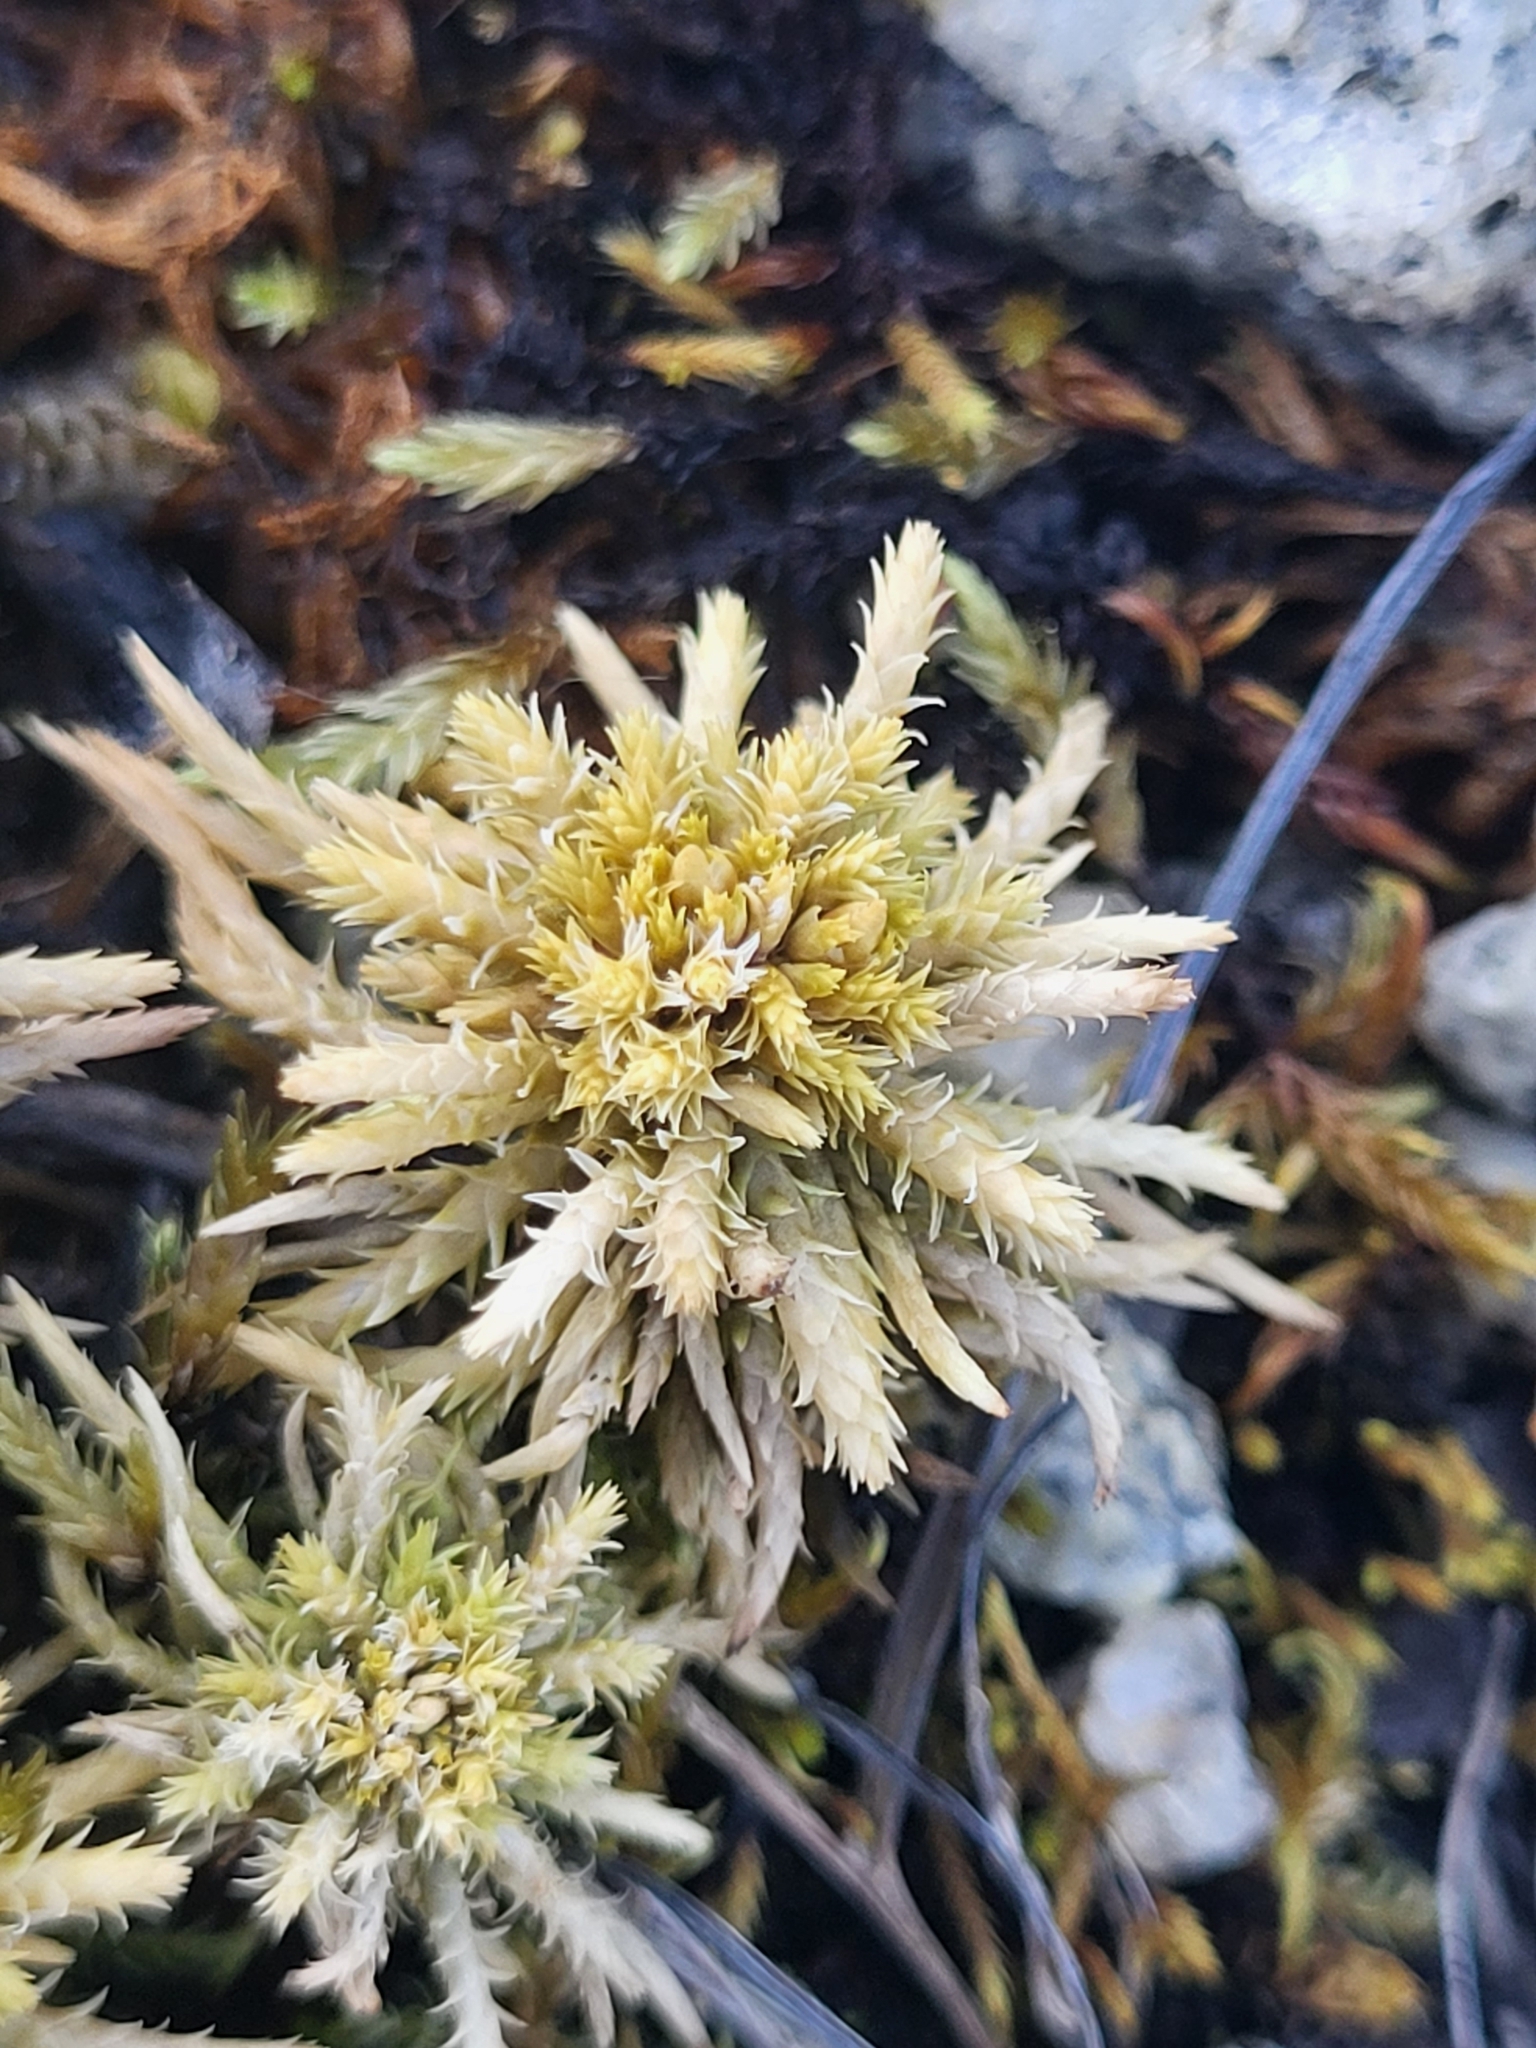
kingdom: Plantae
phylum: Bryophyta
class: Sphagnopsida
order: Sphagnales
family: Sphagnaceae
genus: Sphagnum
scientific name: Sphagnum squarrosum
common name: Shaggy peat moss
